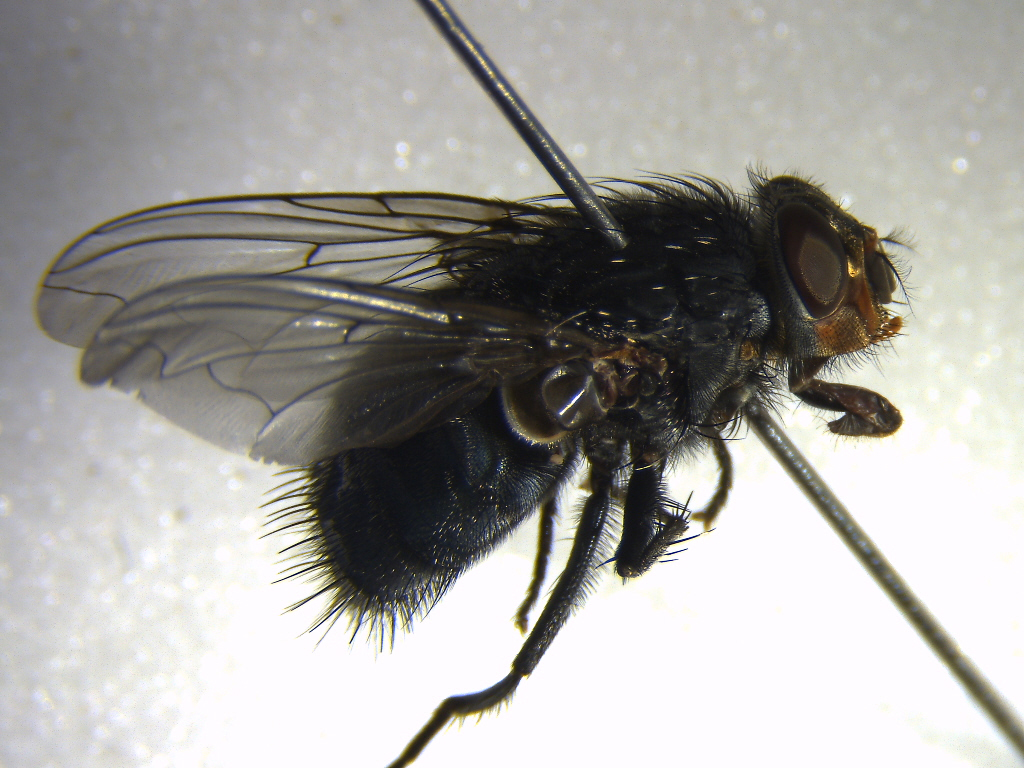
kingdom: Animalia
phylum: Arthropoda
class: Insecta
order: Diptera
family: Calliphoridae
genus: Calliphora
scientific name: Calliphora vicina
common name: Common blow flie
